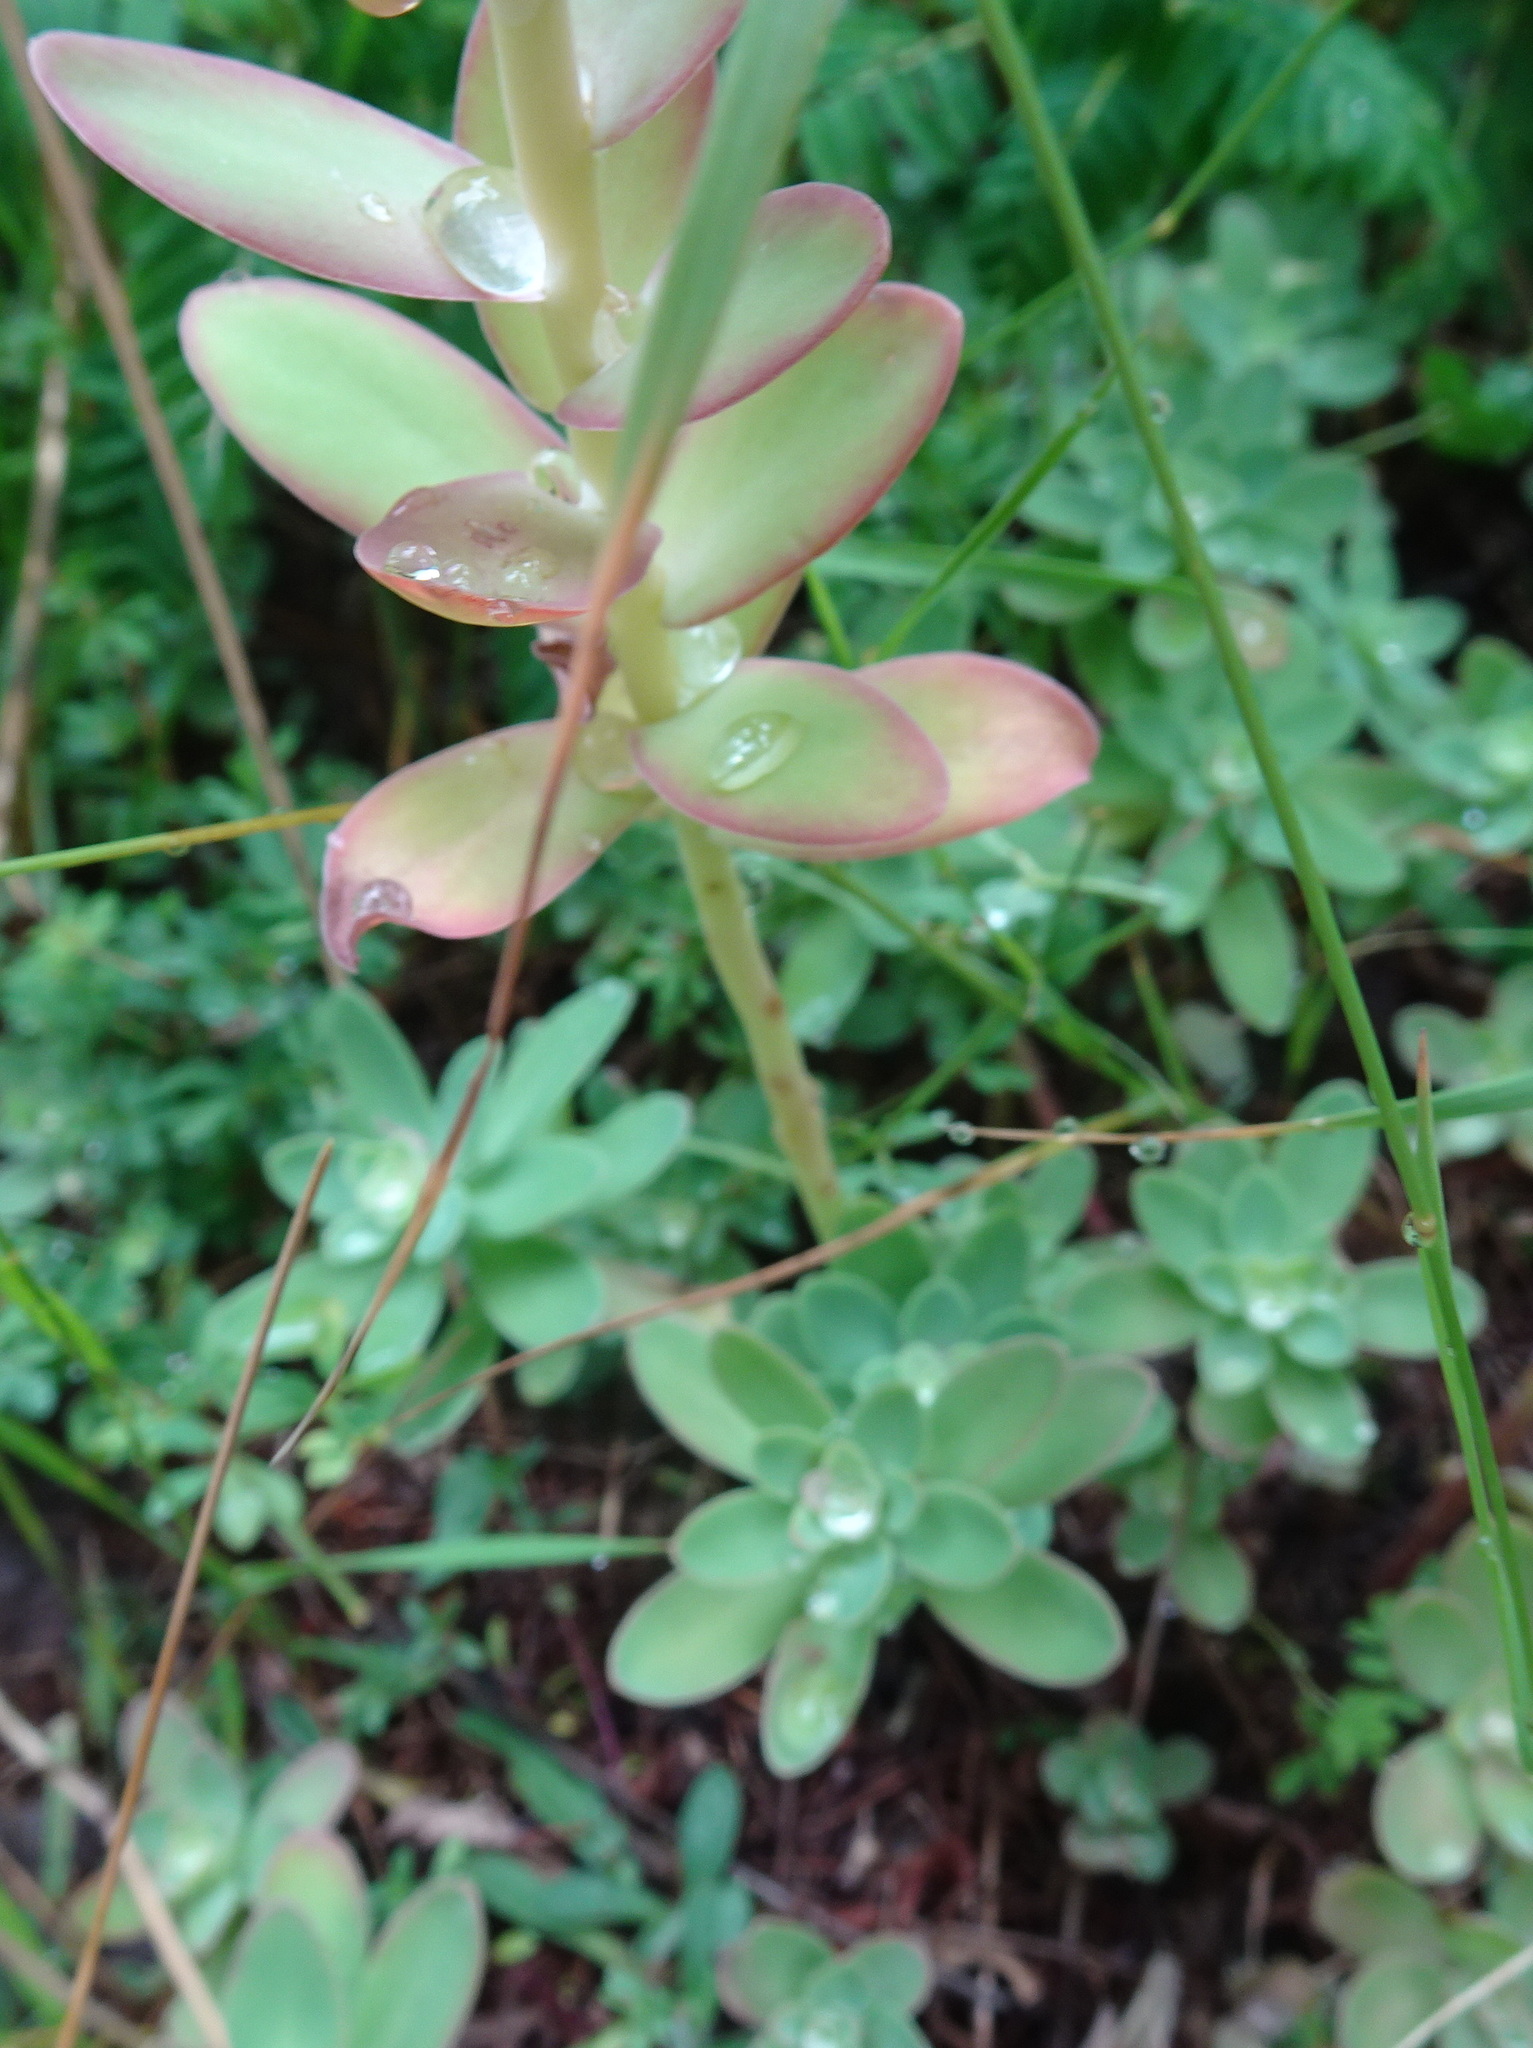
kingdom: Plantae
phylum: Tracheophyta
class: Magnoliopsida
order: Saxifragales
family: Crassulaceae
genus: Hylotelephium
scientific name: Hylotelephium anacampseros
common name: Love-restorer
